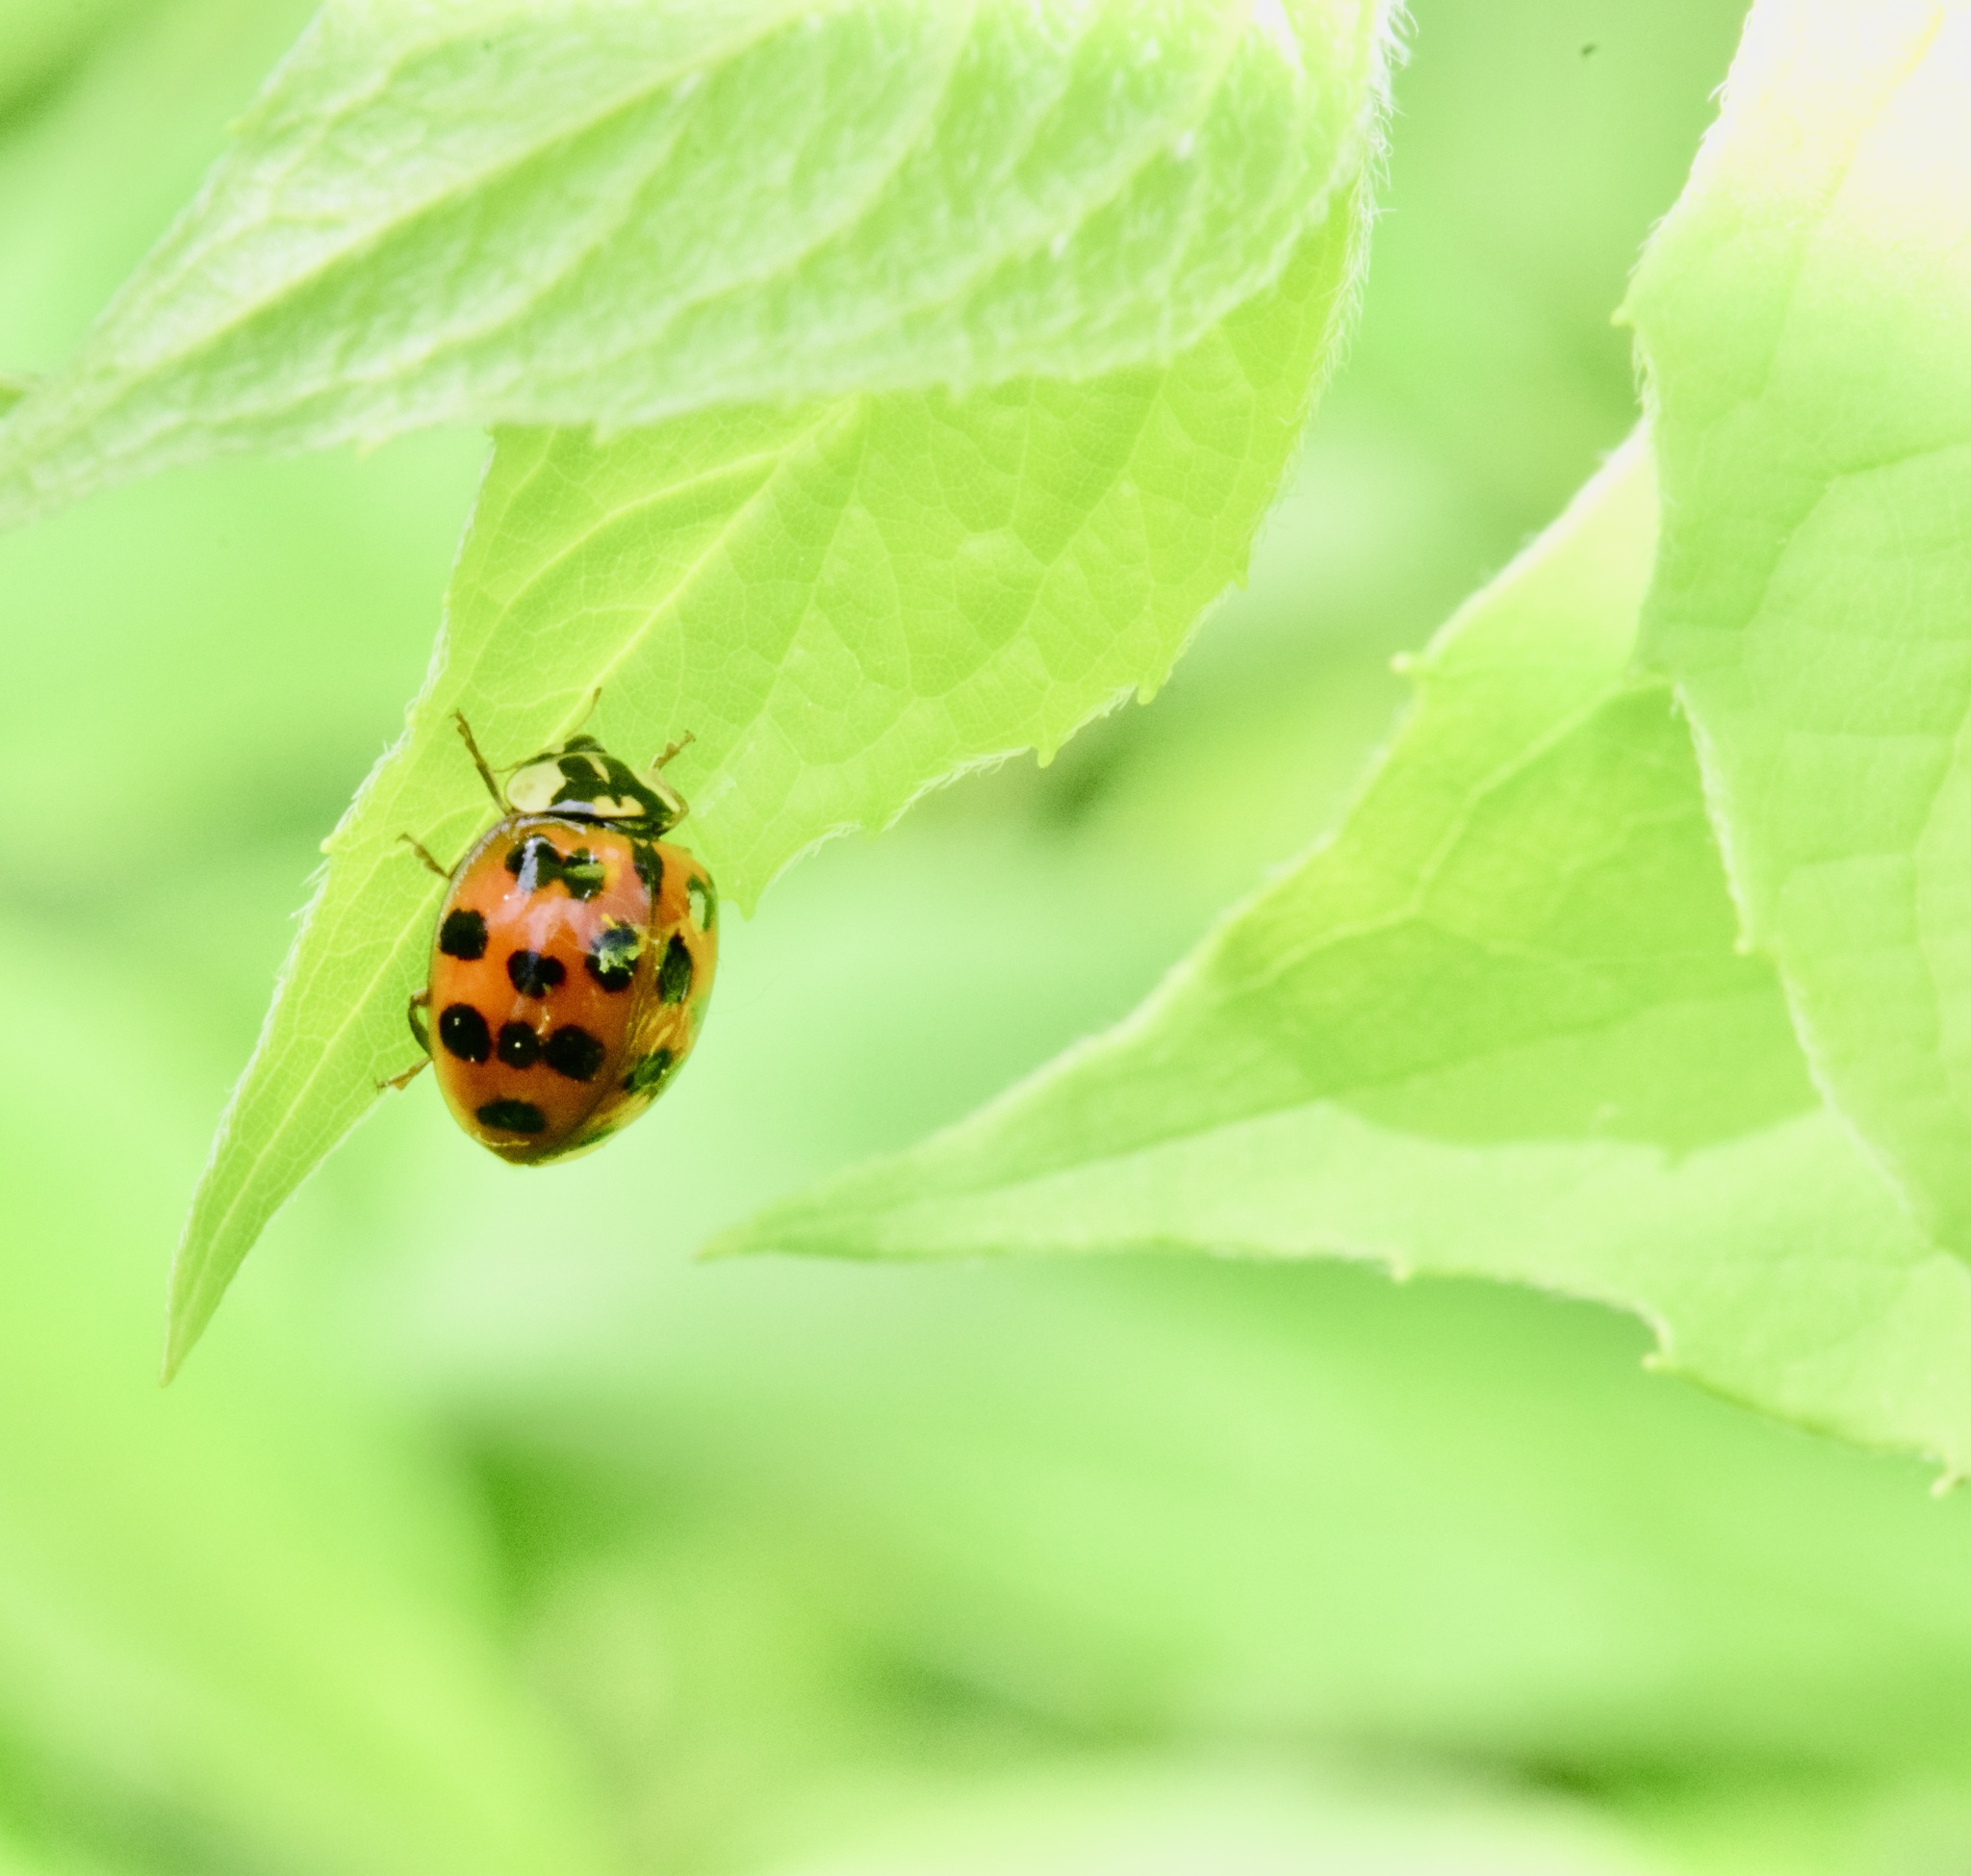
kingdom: Animalia
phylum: Arthropoda
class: Insecta
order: Coleoptera
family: Coccinellidae
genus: Harmonia
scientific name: Harmonia axyridis
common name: Harlequin ladybird
